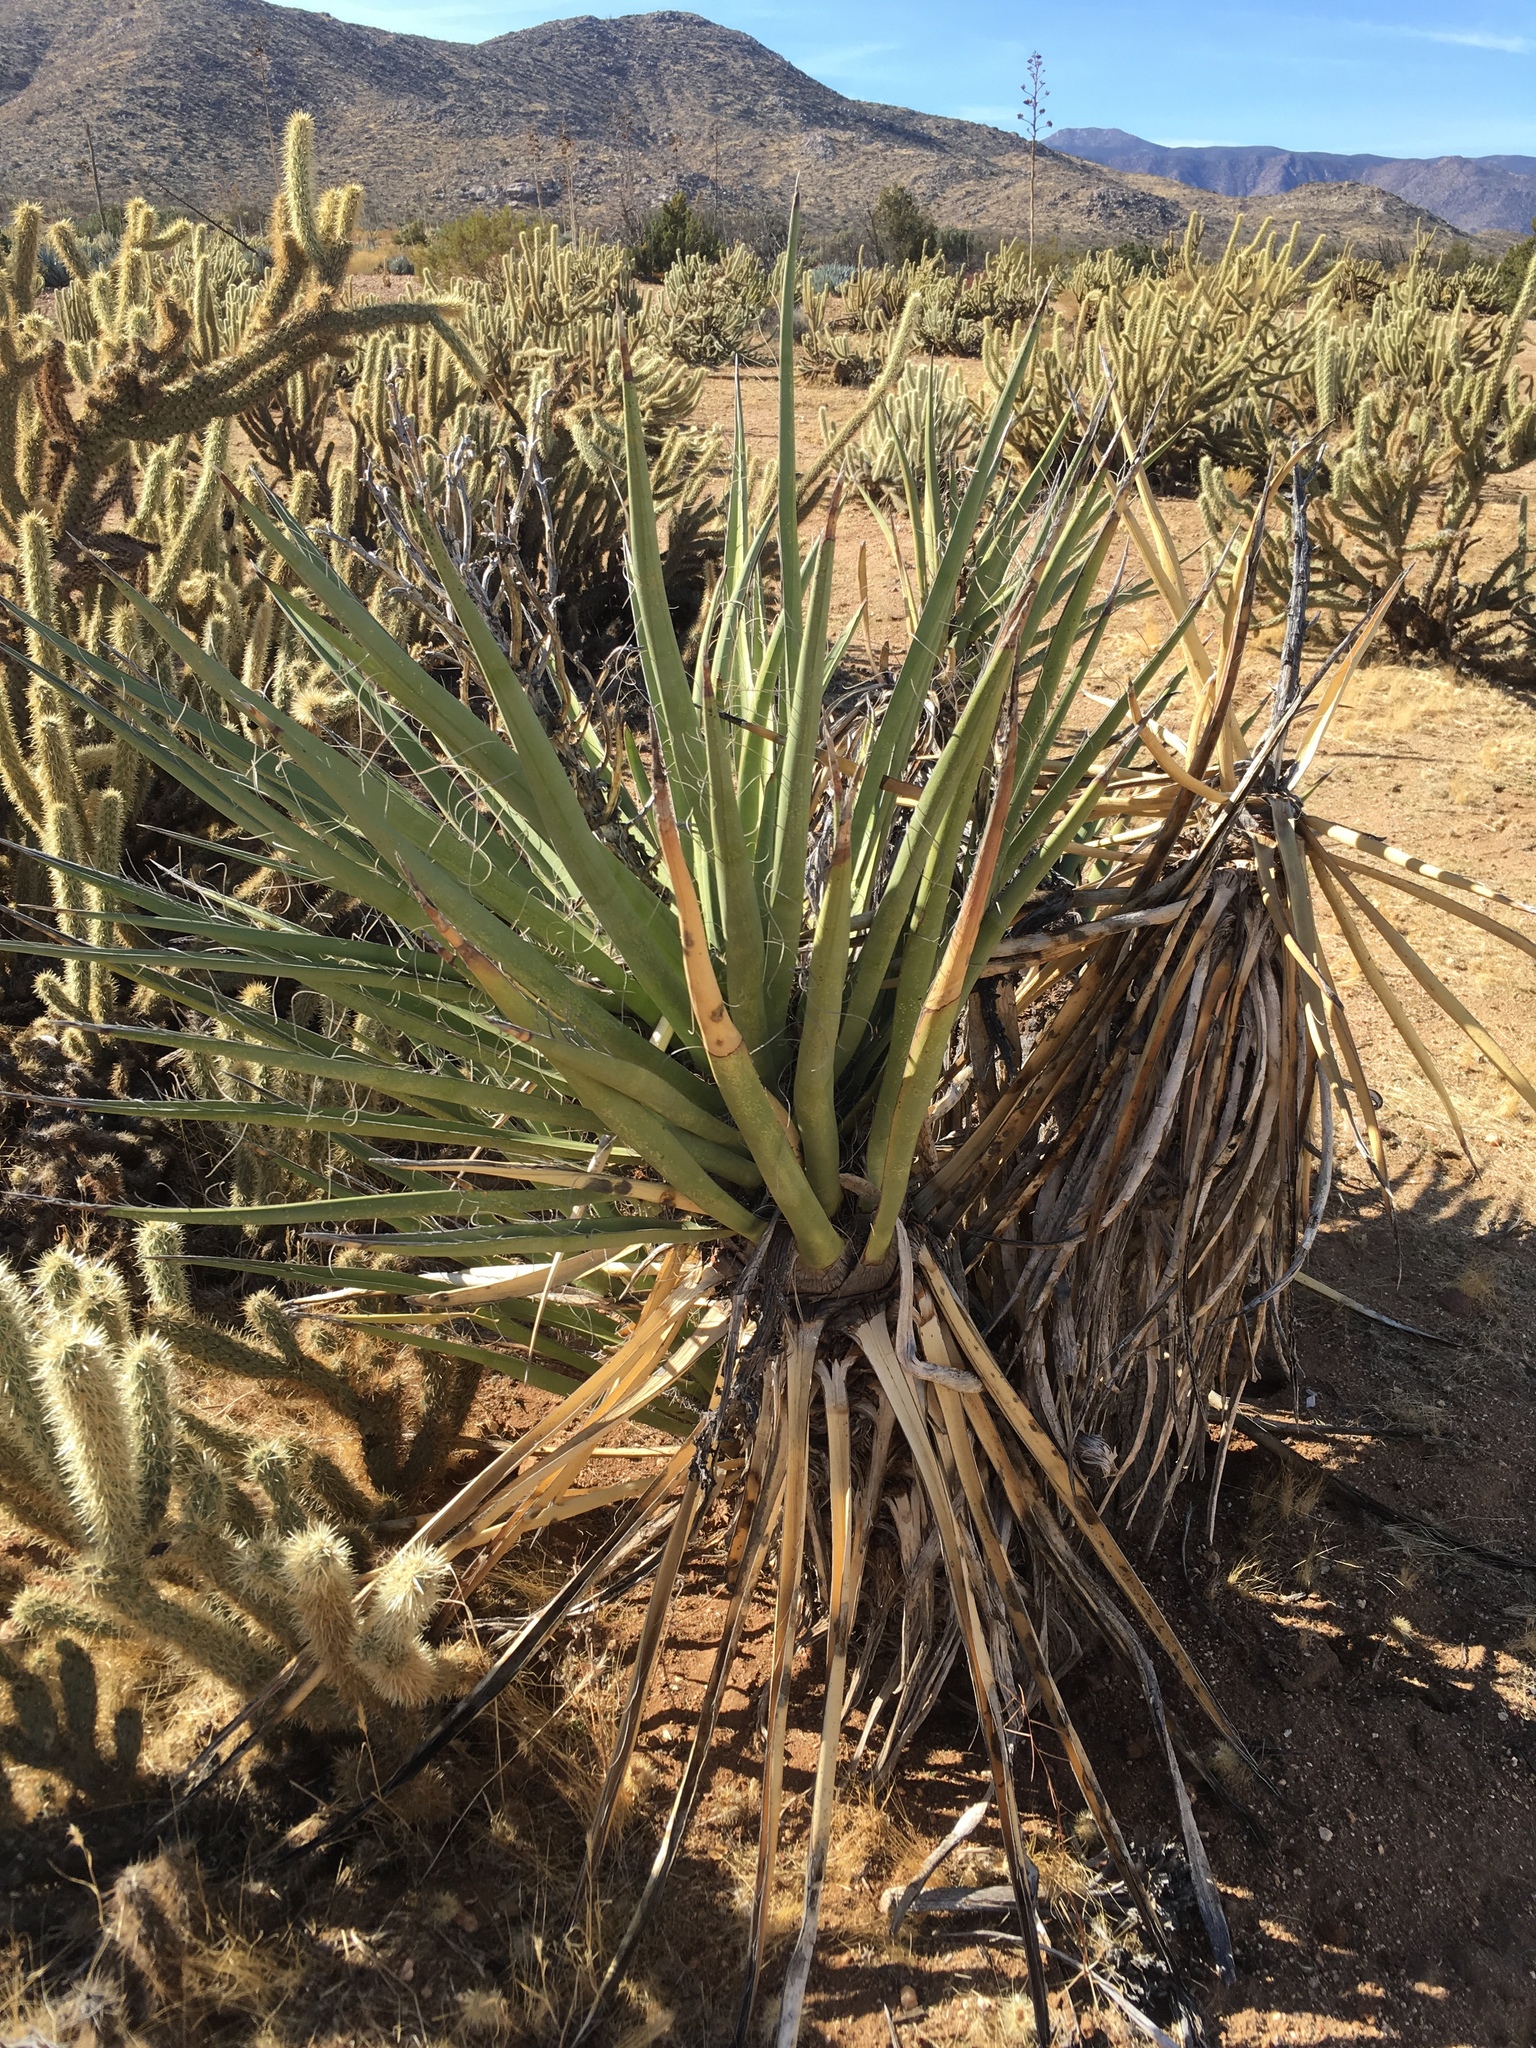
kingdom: Plantae
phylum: Tracheophyta
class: Liliopsida
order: Asparagales
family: Asparagaceae
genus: Yucca
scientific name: Yucca schidigera
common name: Mojave yucca
